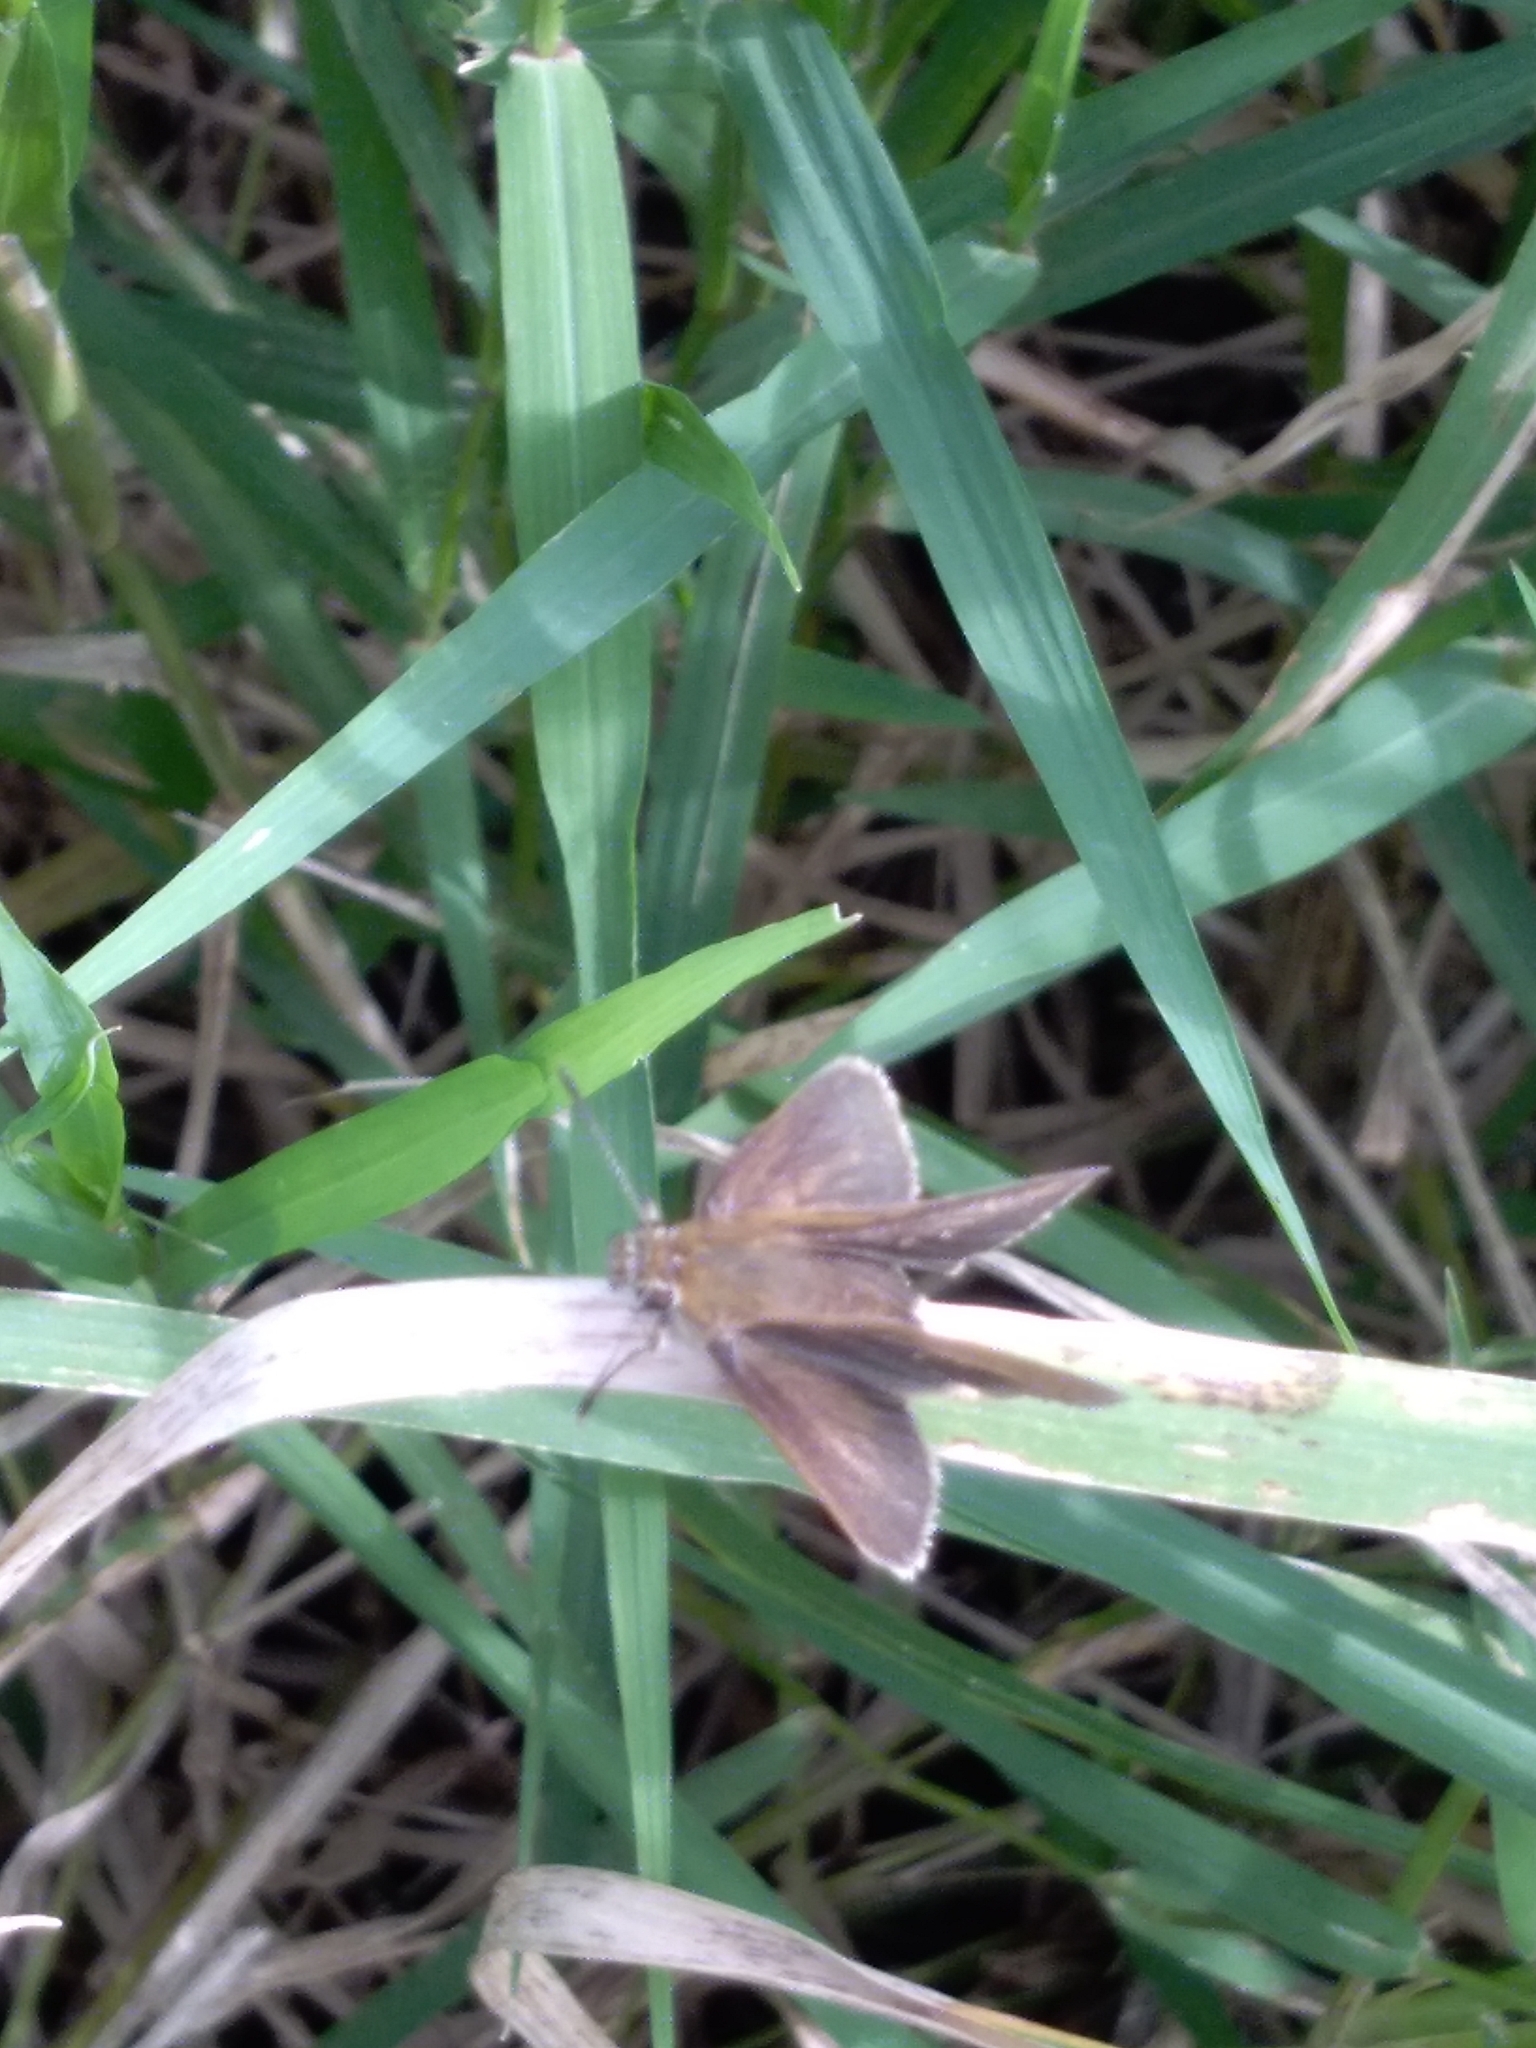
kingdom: Animalia
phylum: Arthropoda
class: Insecta
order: Lepidoptera
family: Hesperiidae
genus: Pompeius
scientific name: Pompeius pompeius
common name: Pompeius skipper
